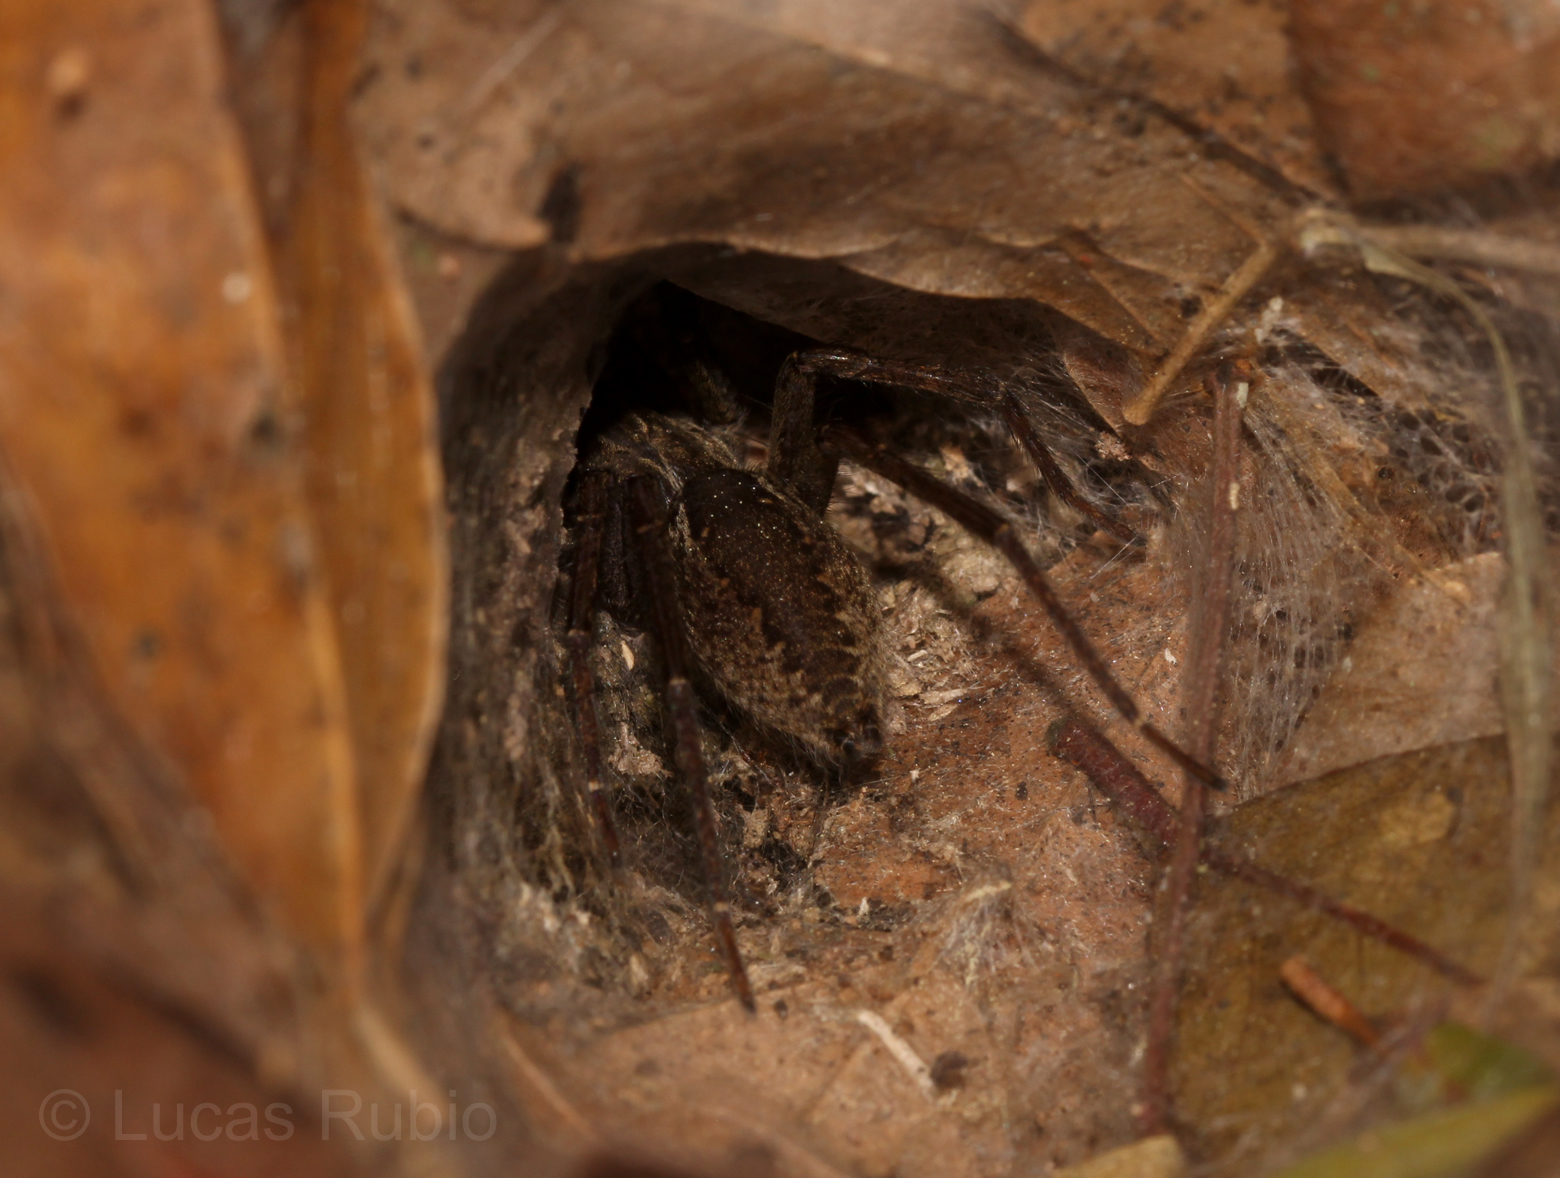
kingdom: Animalia
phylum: Arthropoda
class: Arachnida
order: Araneae
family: Lycosidae
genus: Aglaoctenus
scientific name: Aglaoctenus lagotis
